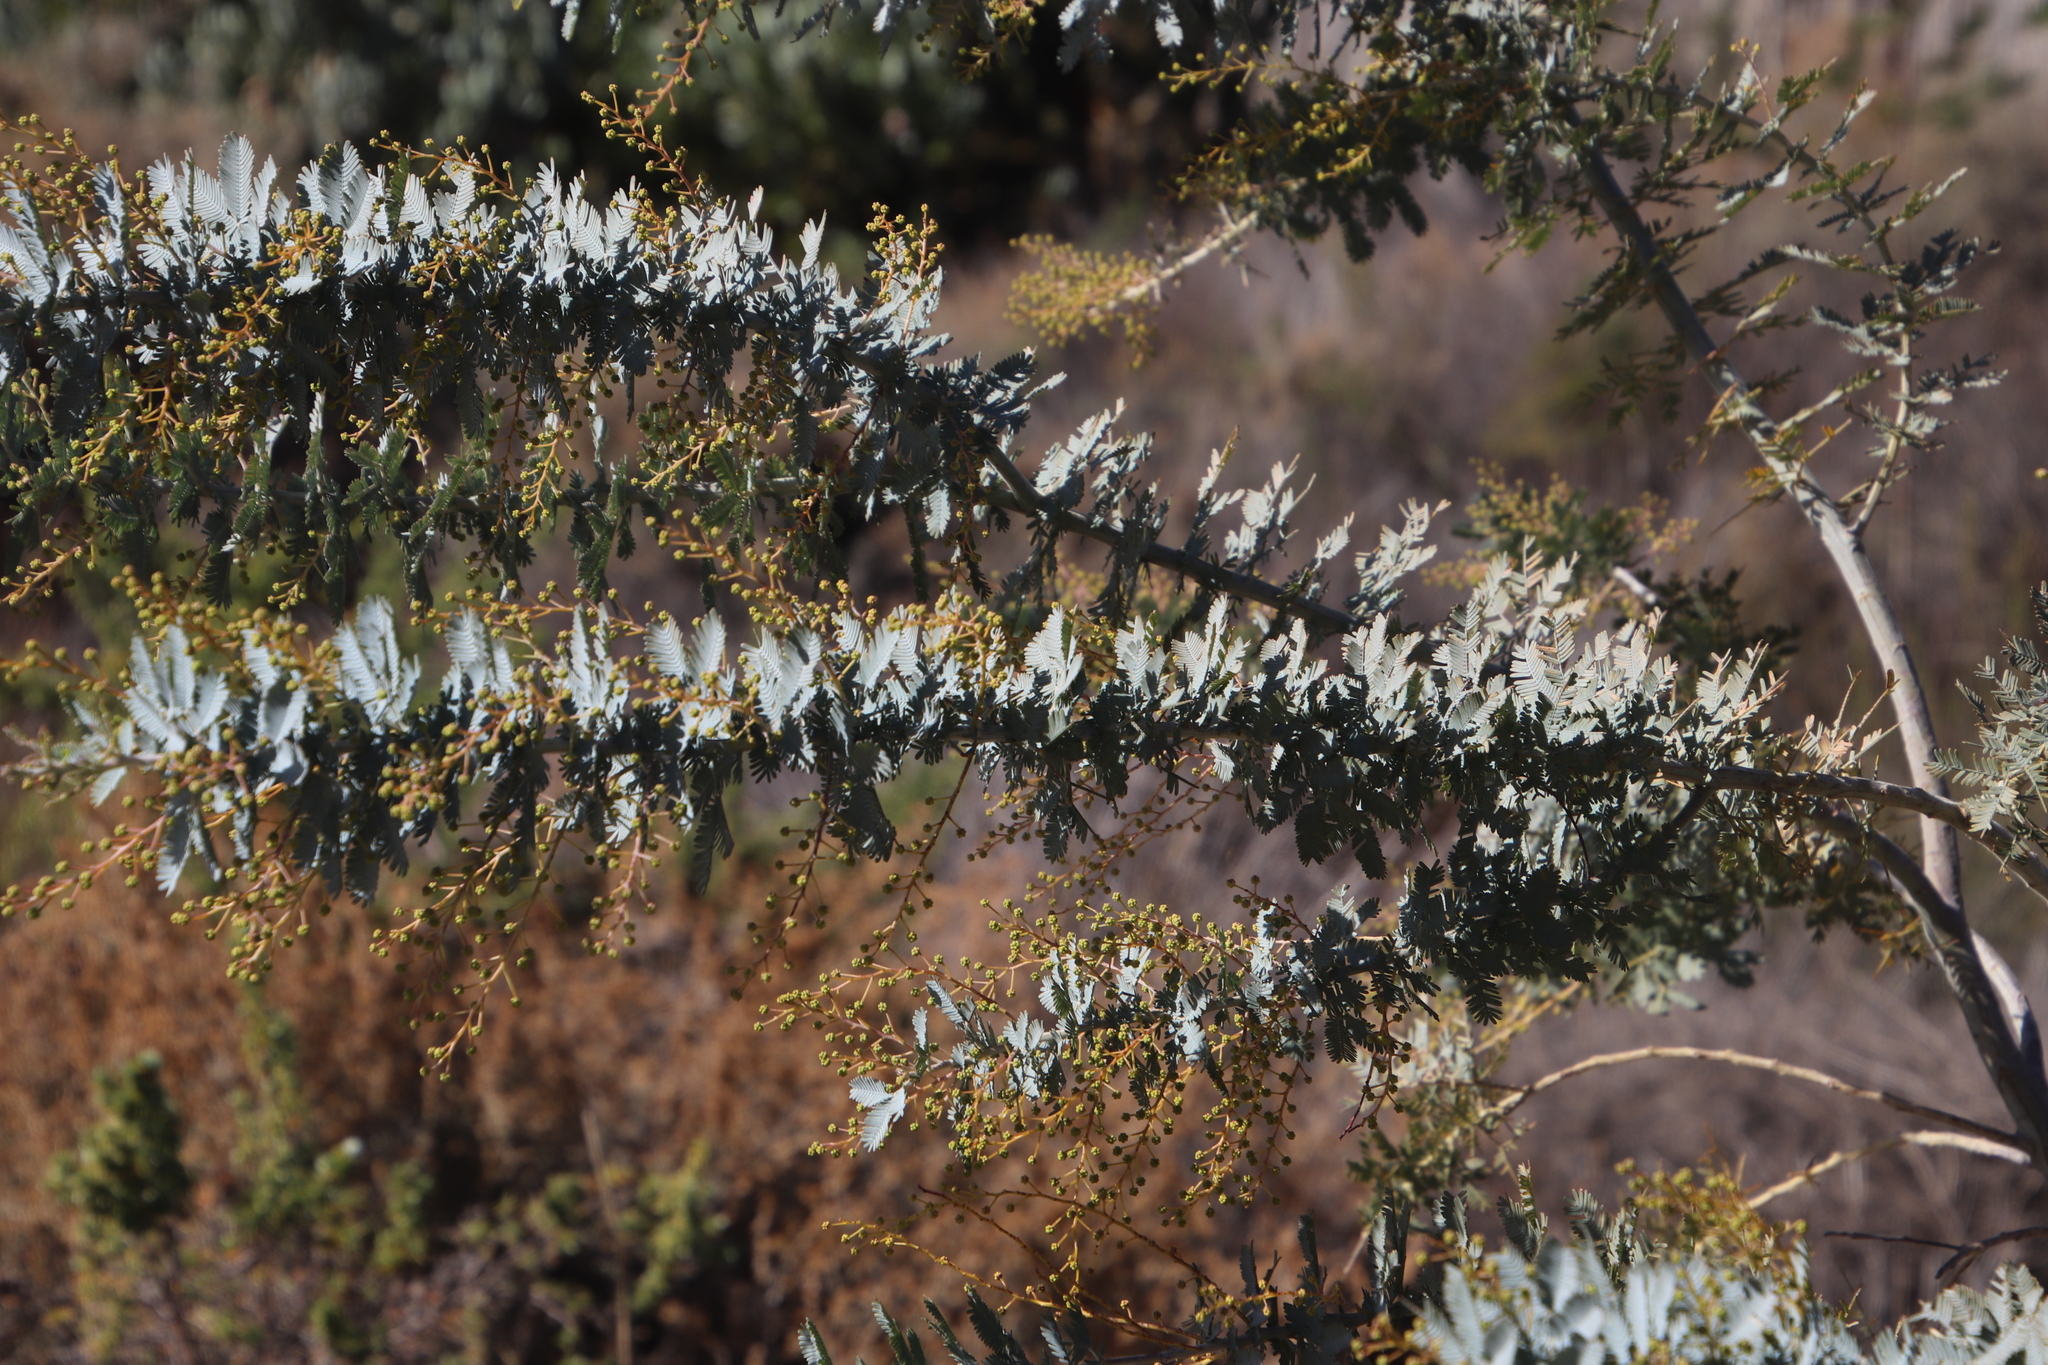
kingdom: Plantae
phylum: Tracheophyta
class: Magnoliopsida
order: Fabales
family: Fabaceae
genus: Acacia
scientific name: Acacia baileyana
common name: Cootamundra wattle
